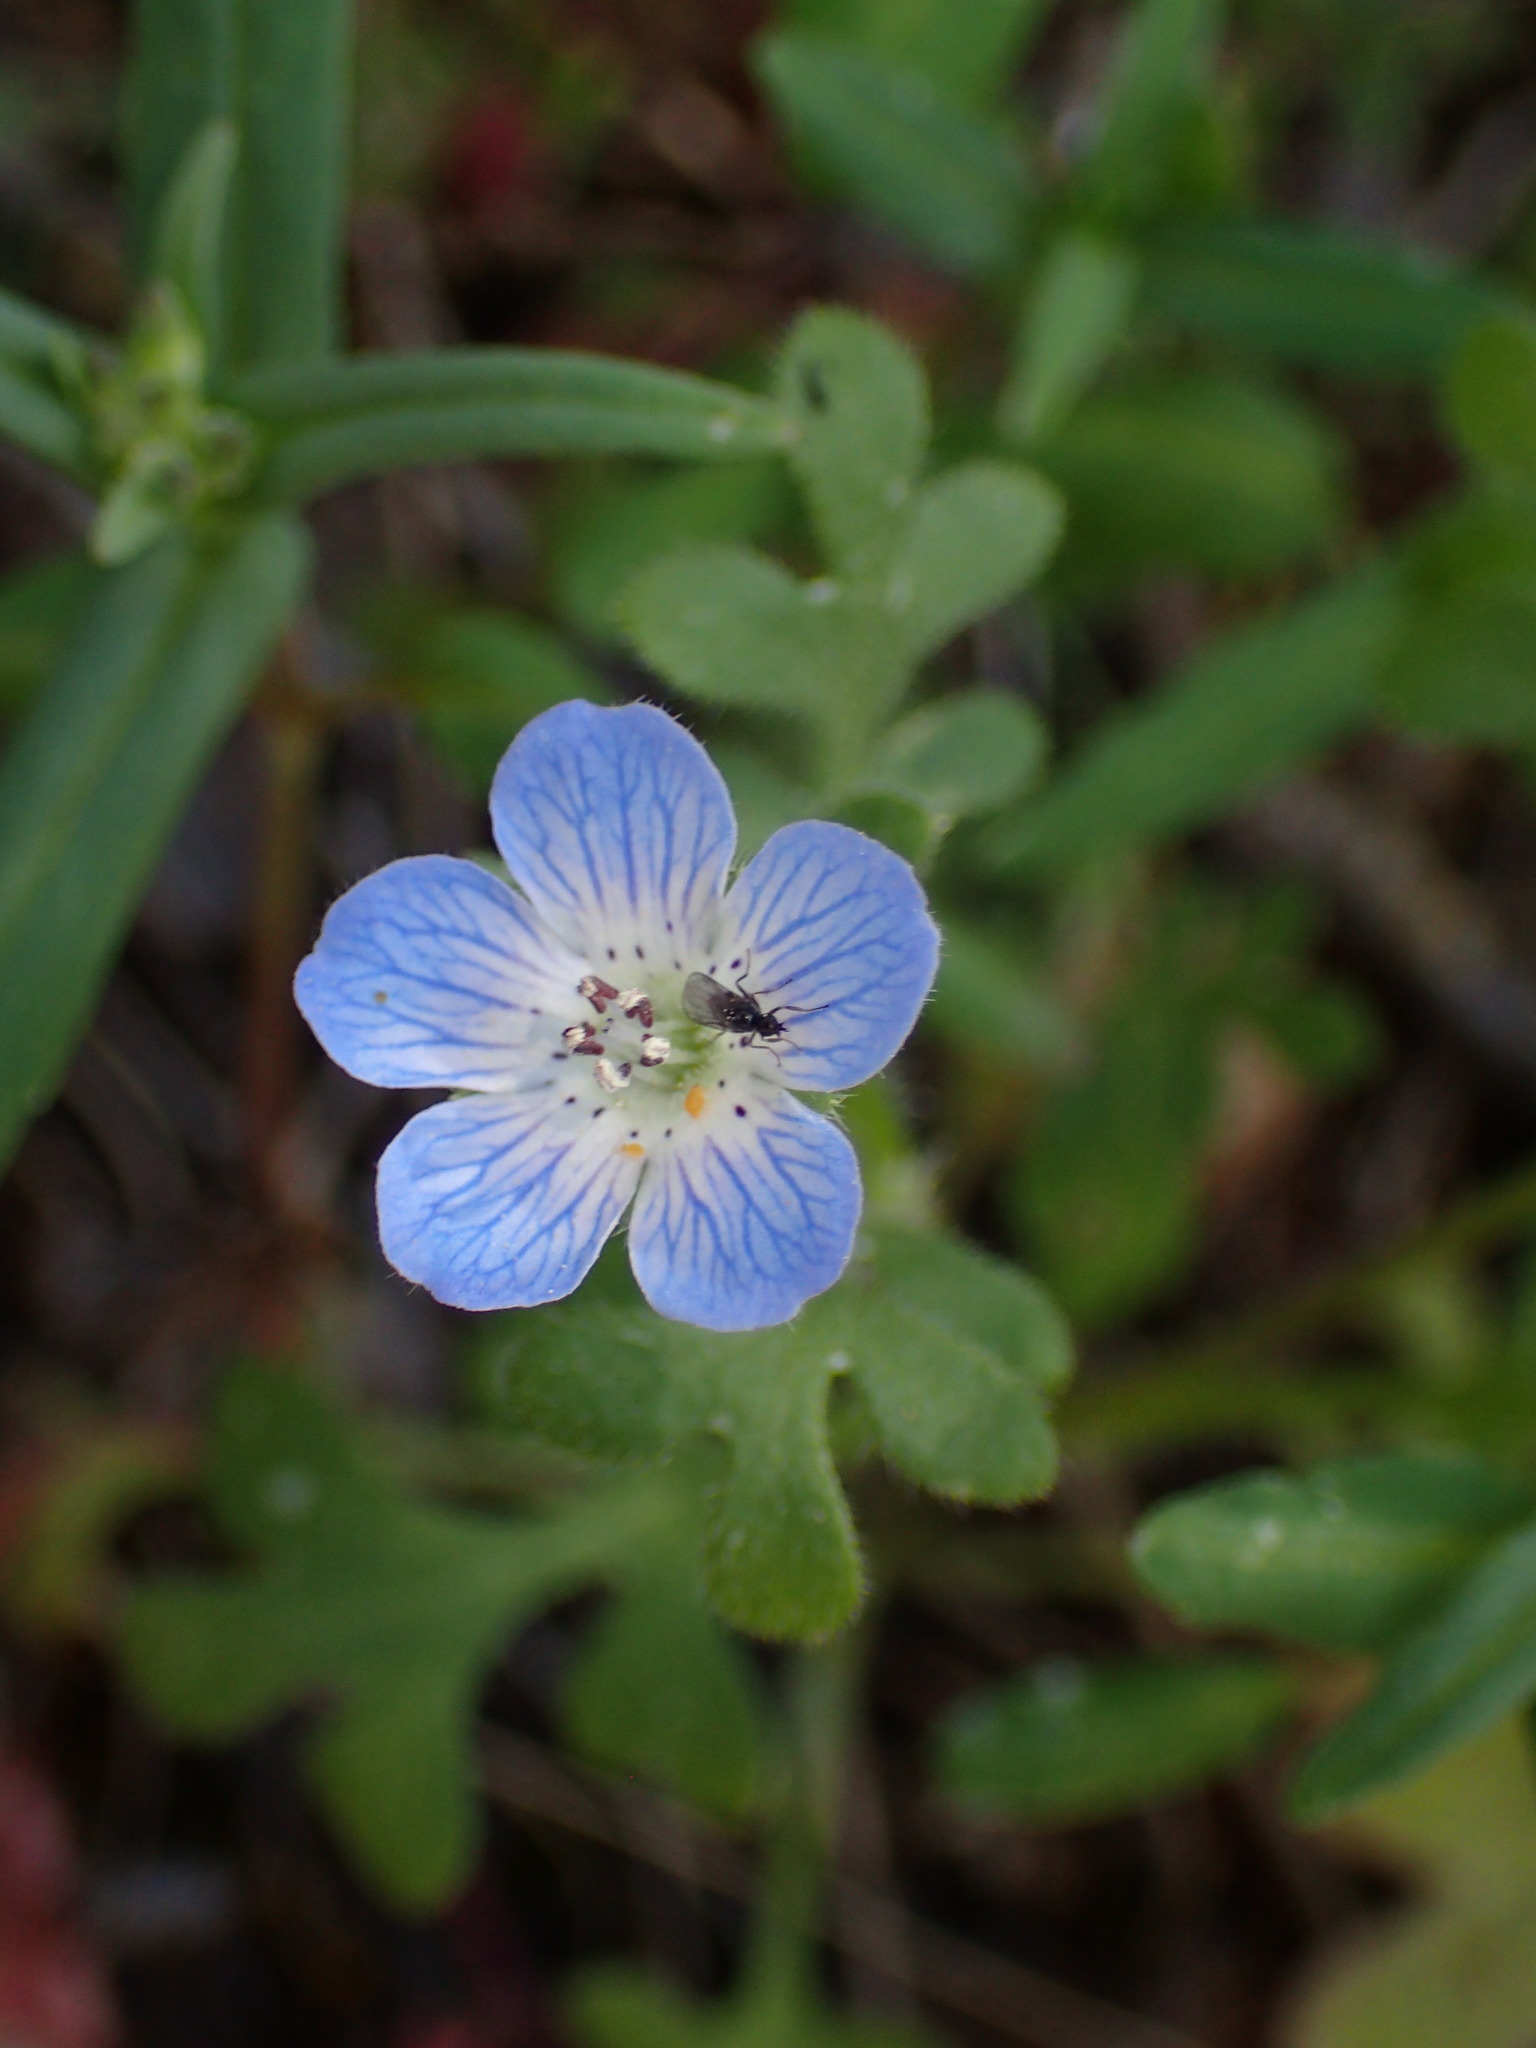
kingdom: Plantae
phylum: Tracheophyta
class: Magnoliopsida
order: Boraginales
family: Hydrophyllaceae
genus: Nemophila
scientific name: Nemophila menziesii
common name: Baby's-blue-eyes
